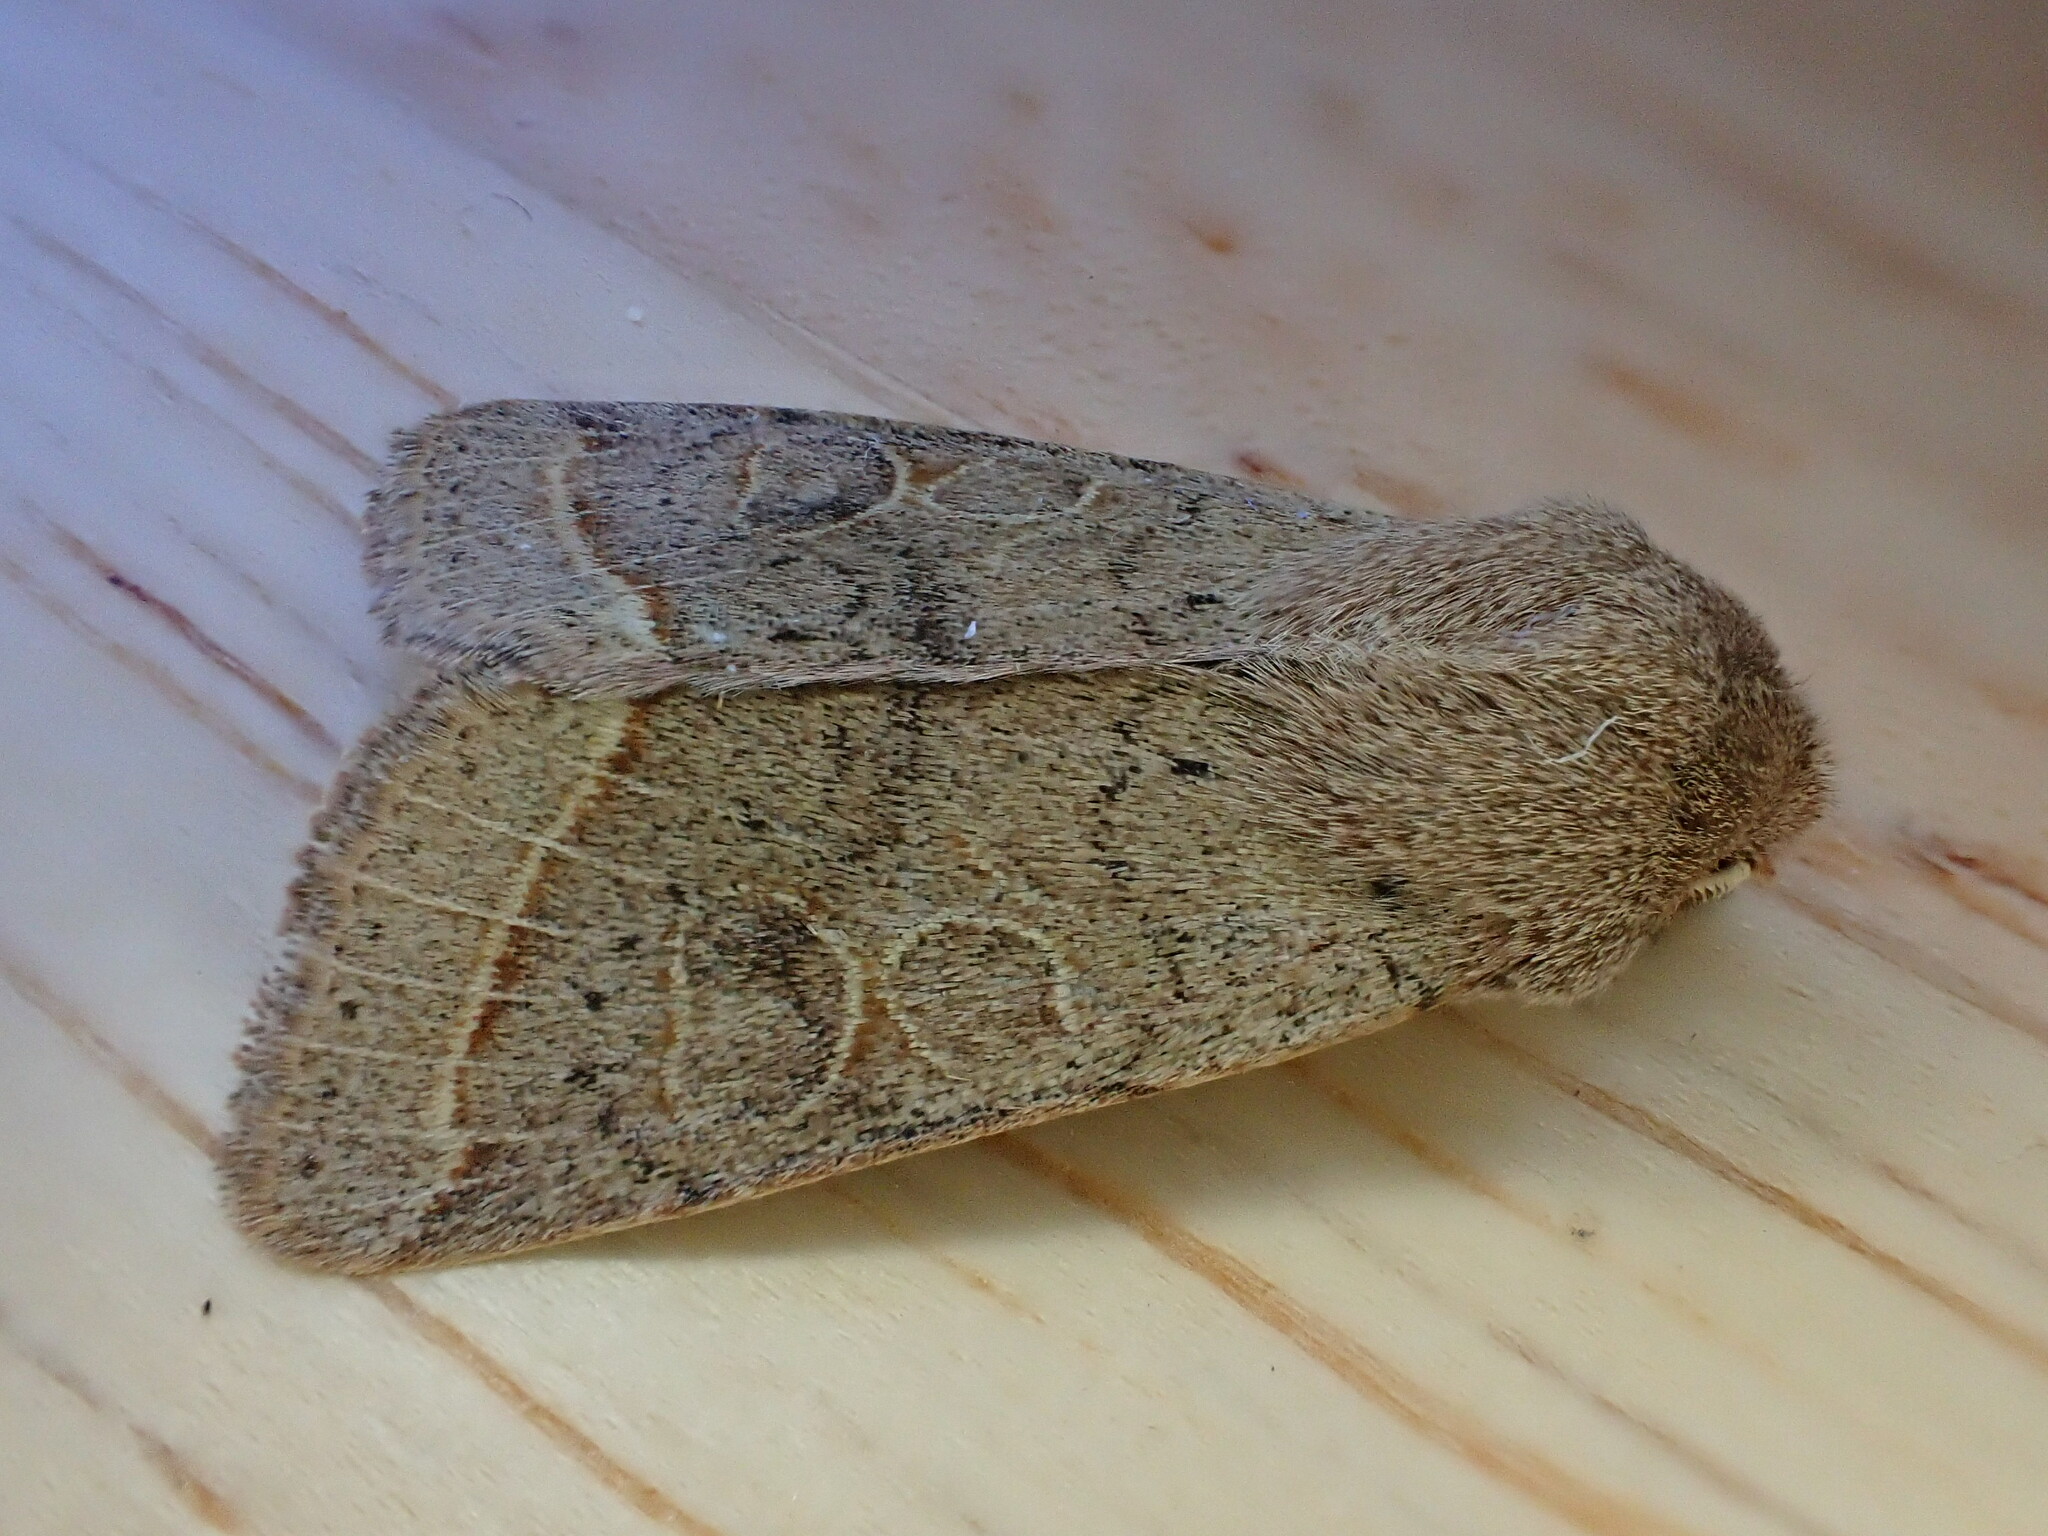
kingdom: Animalia
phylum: Arthropoda
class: Insecta
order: Lepidoptera
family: Noctuidae
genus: Orthosia
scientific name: Orthosia cerasi
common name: Common quaker
